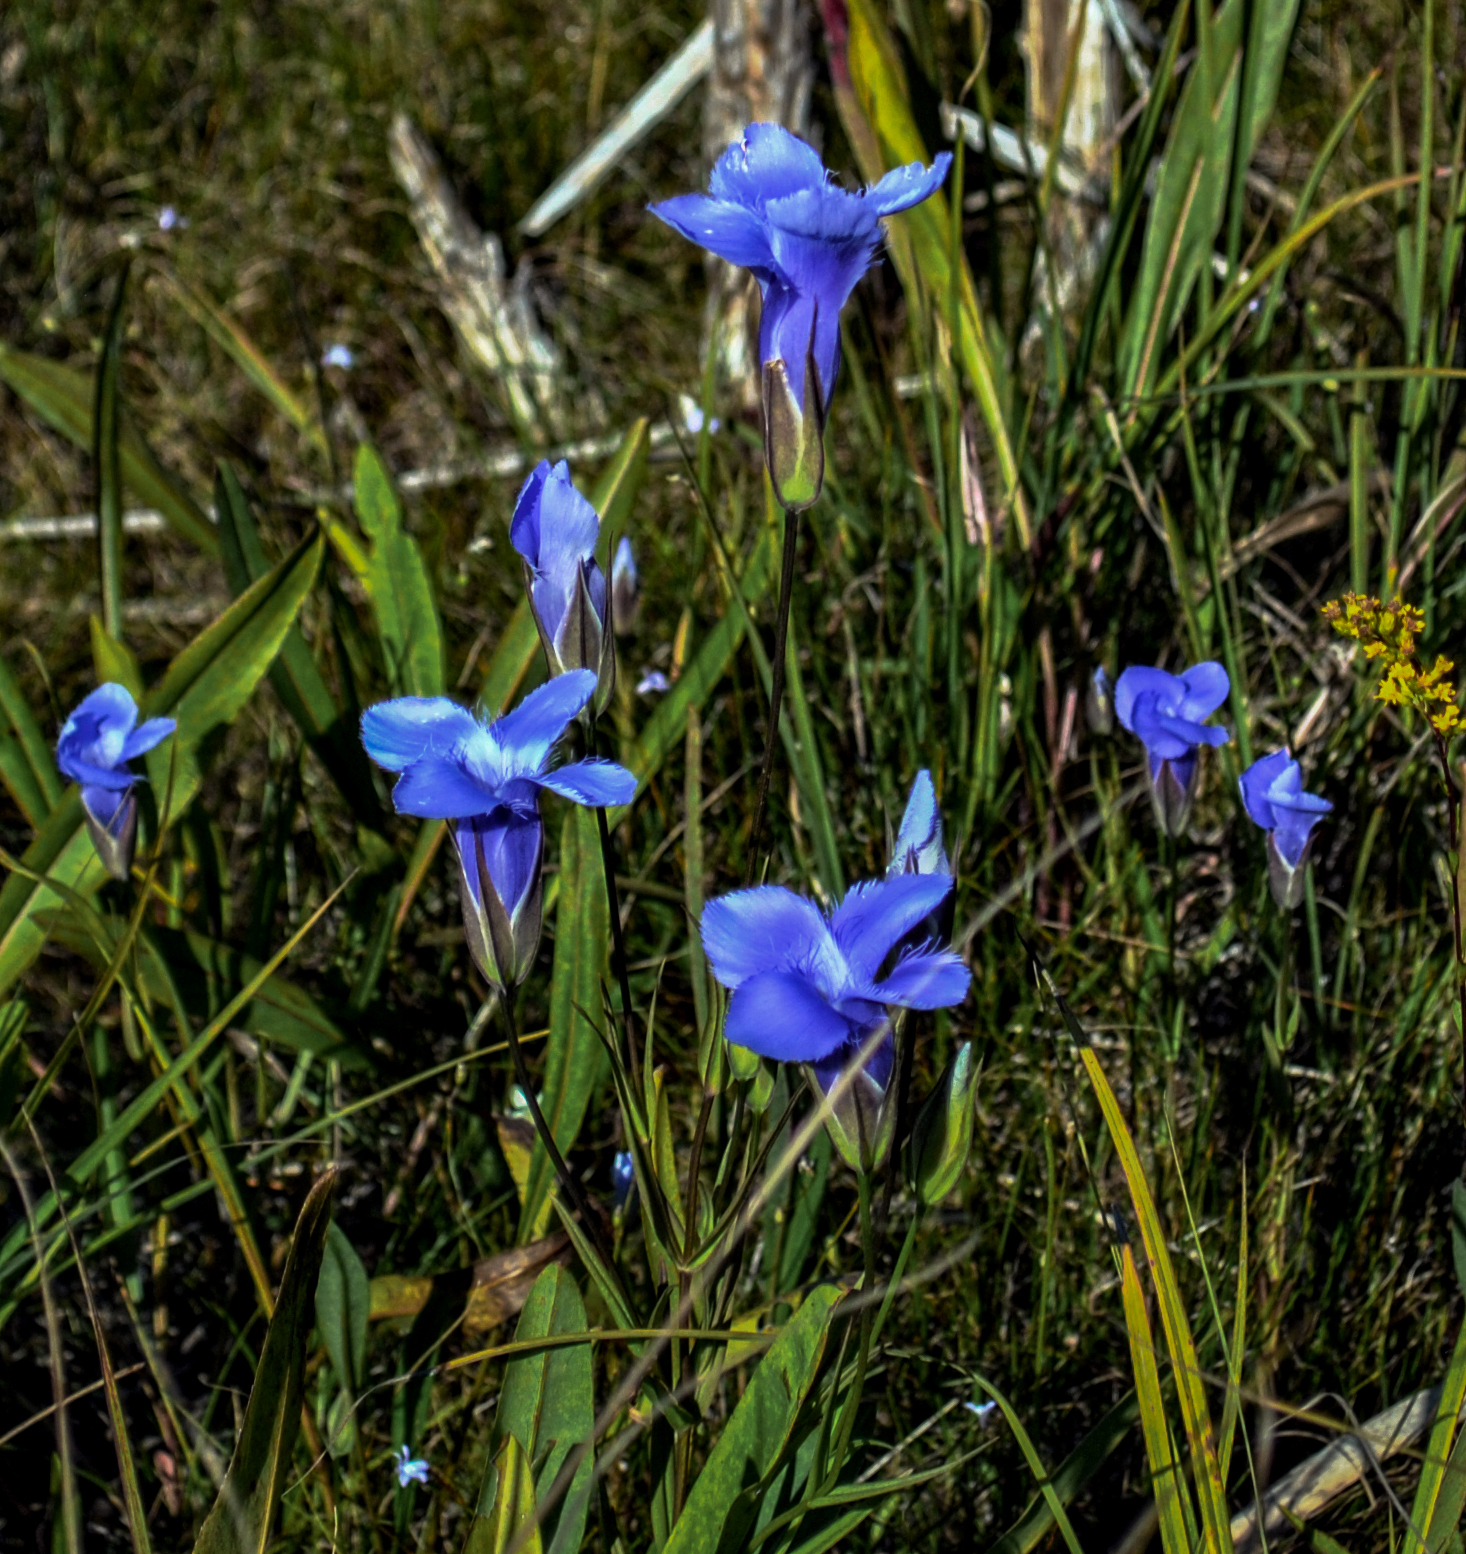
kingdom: Plantae
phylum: Tracheophyta
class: Magnoliopsida
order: Gentianales
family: Gentianaceae
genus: Gentianopsis
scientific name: Gentianopsis virgata
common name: Lesser fringed-gentian
